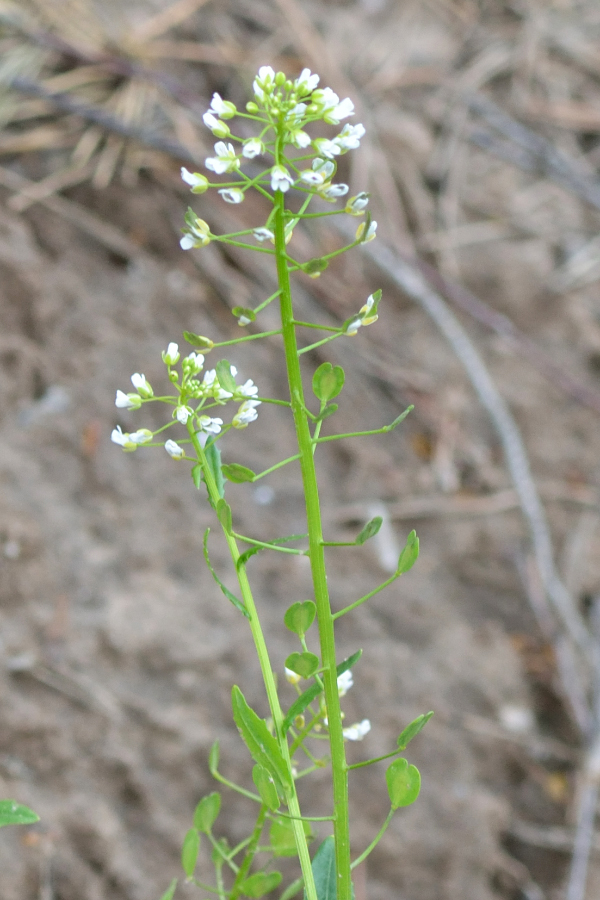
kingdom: Plantae
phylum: Tracheophyta
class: Magnoliopsida
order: Brassicales
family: Brassicaceae
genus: Thlaspi
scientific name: Thlaspi arvense
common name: Field pennycress
